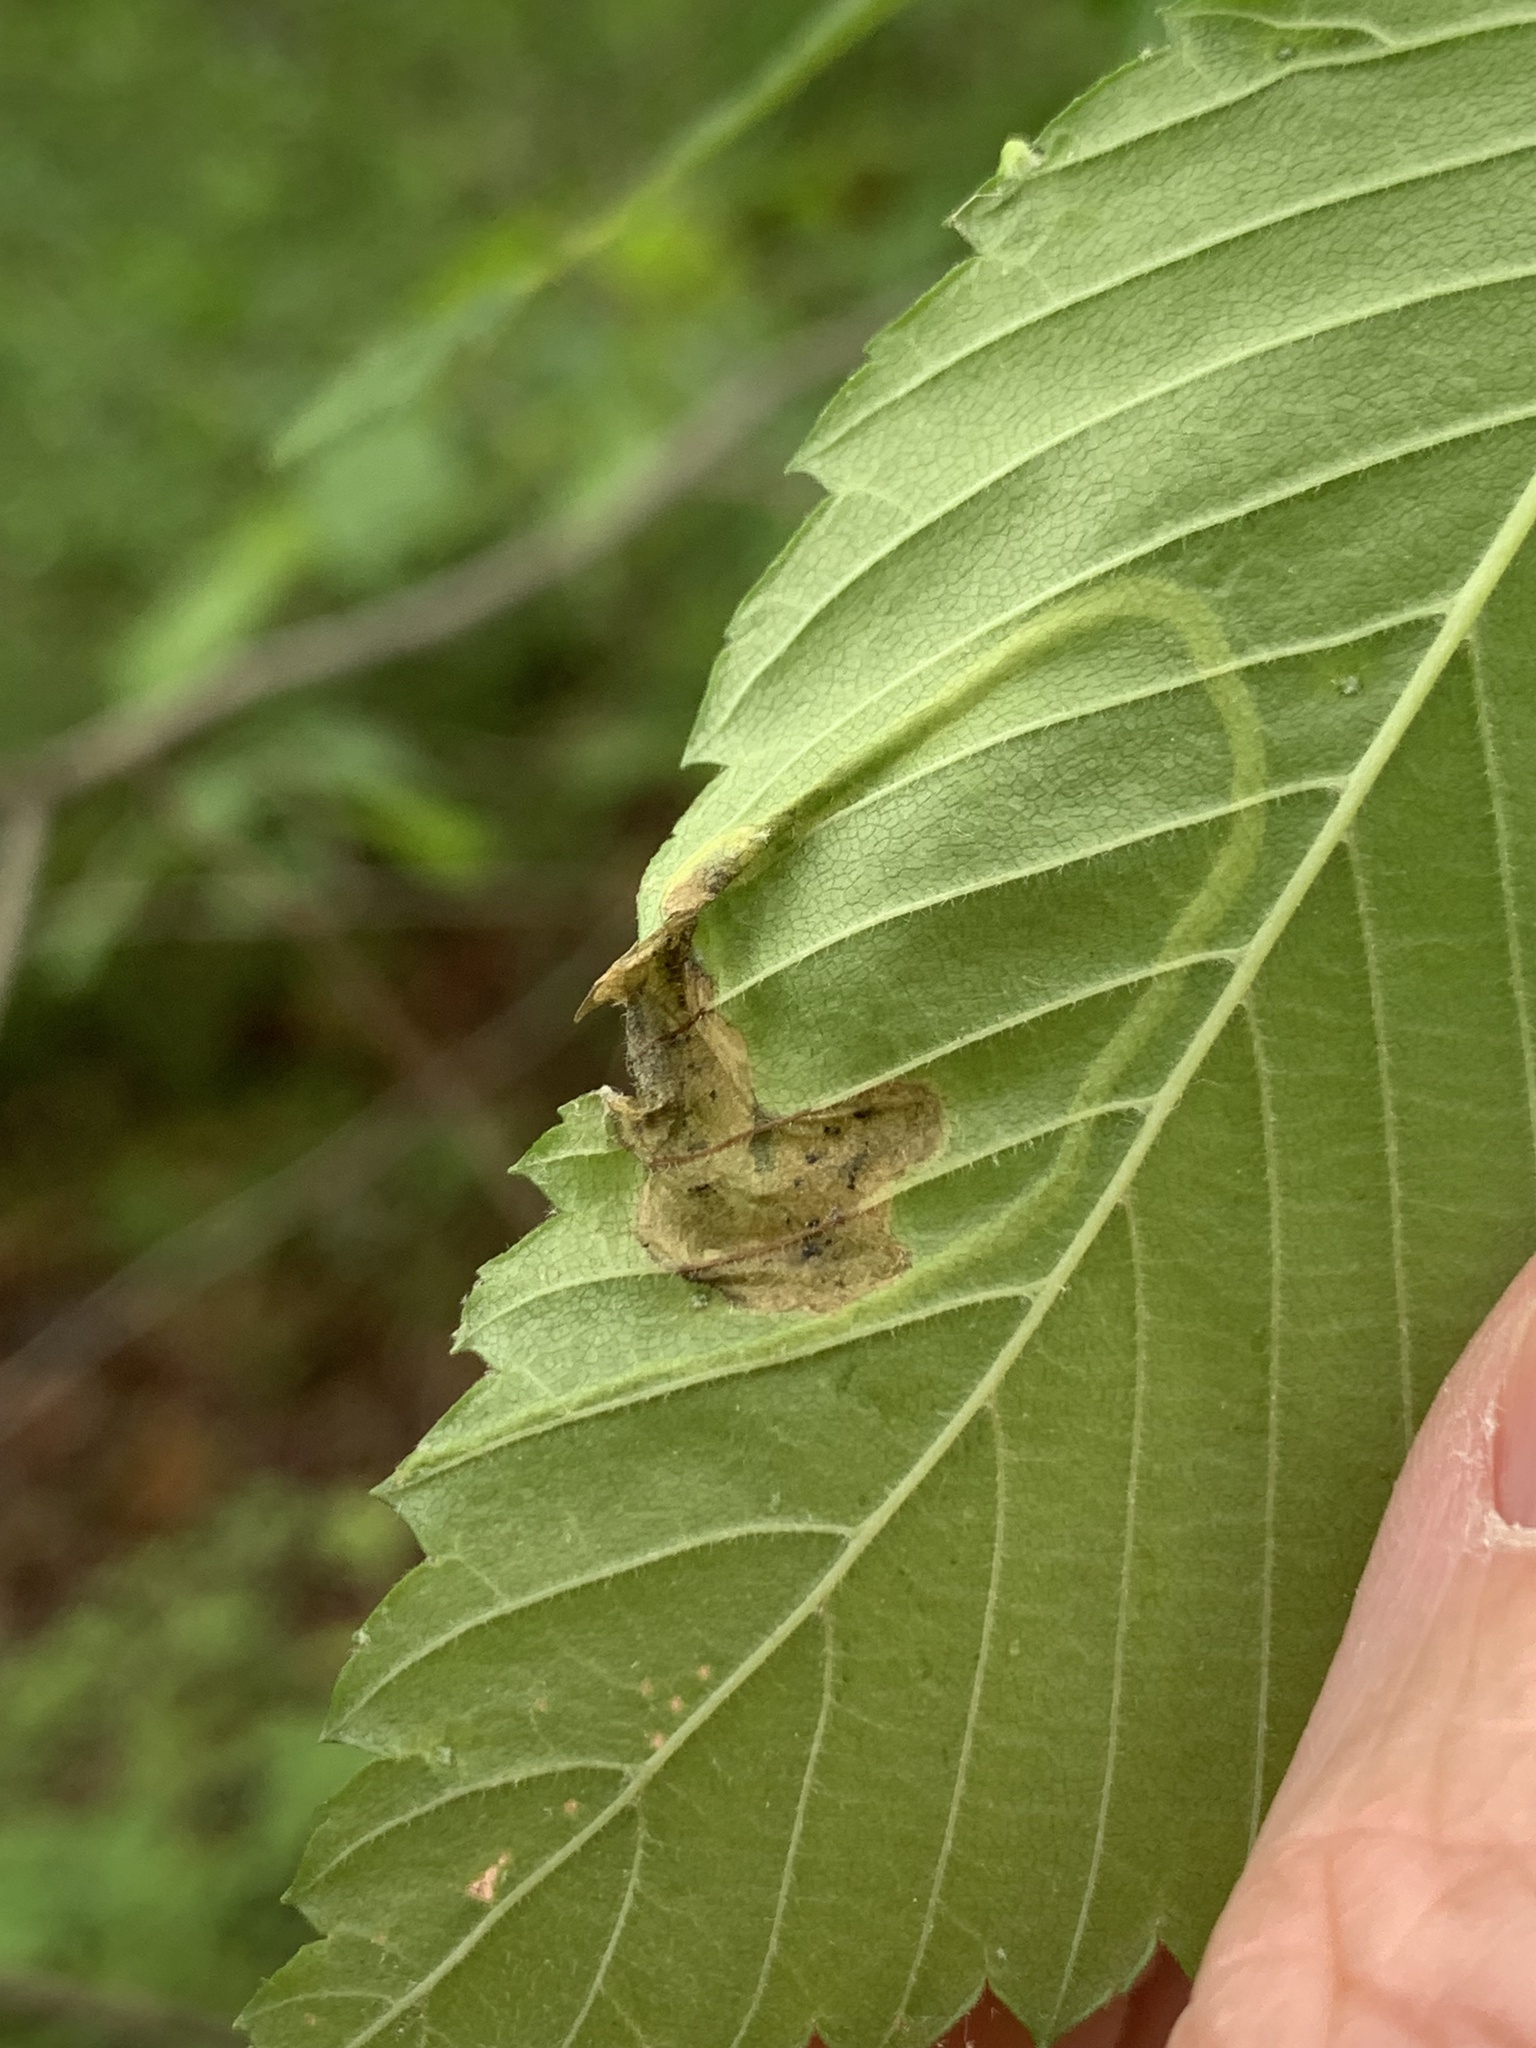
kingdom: Animalia
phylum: Arthropoda
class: Insecta
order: Diptera
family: Agromyzidae
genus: Agromyza
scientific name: Agromyza aristata
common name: Elm agromyzid leafminer
